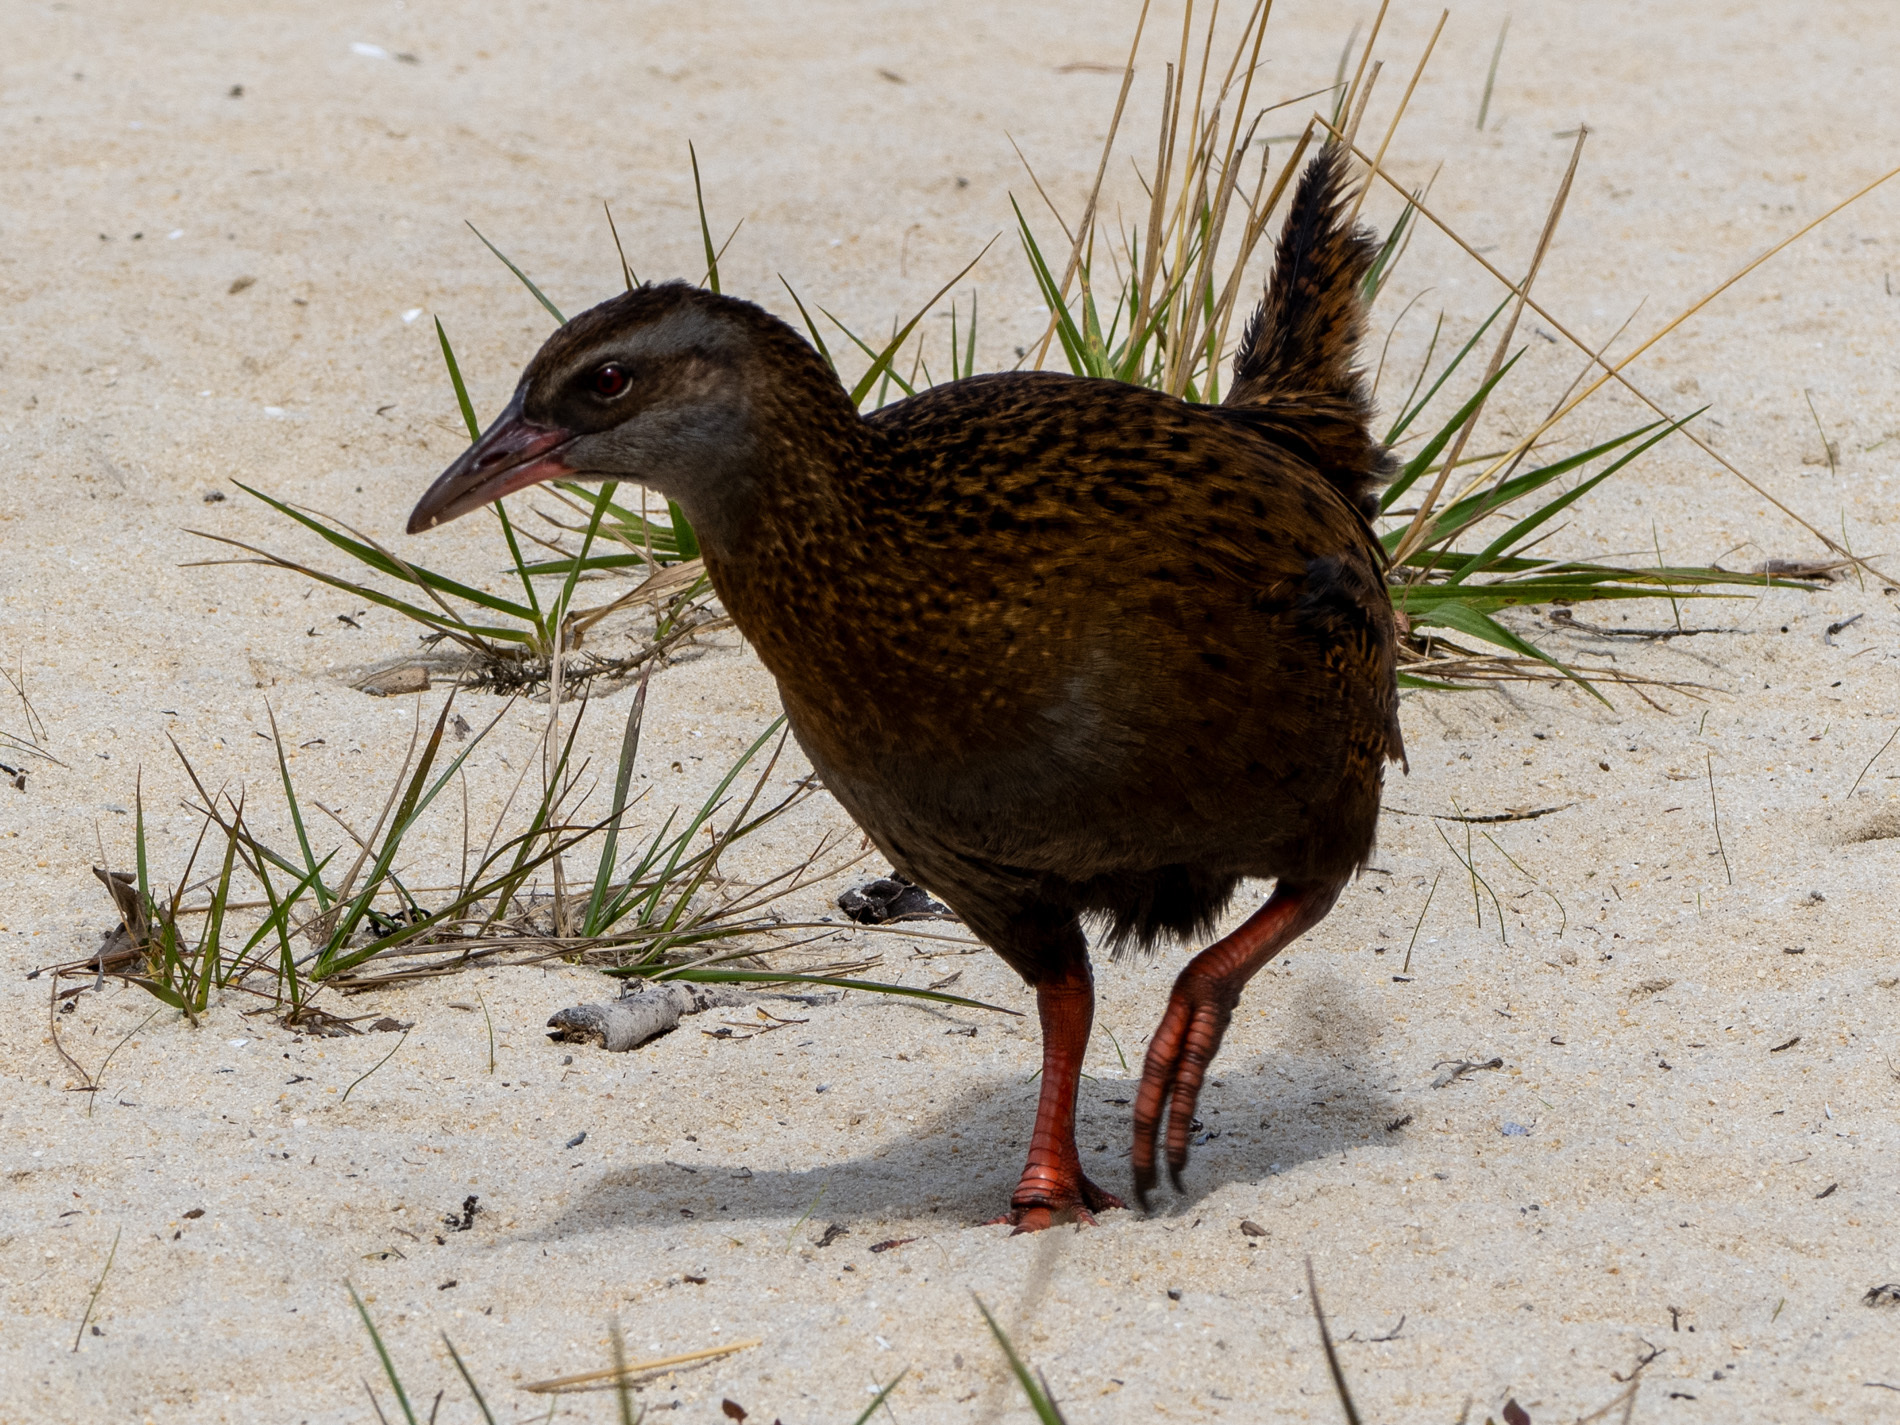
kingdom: Animalia
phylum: Chordata
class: Aves
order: Gruiformes
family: Rallidae
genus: Gallirallus
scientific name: Gallirallus australis
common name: Weka
